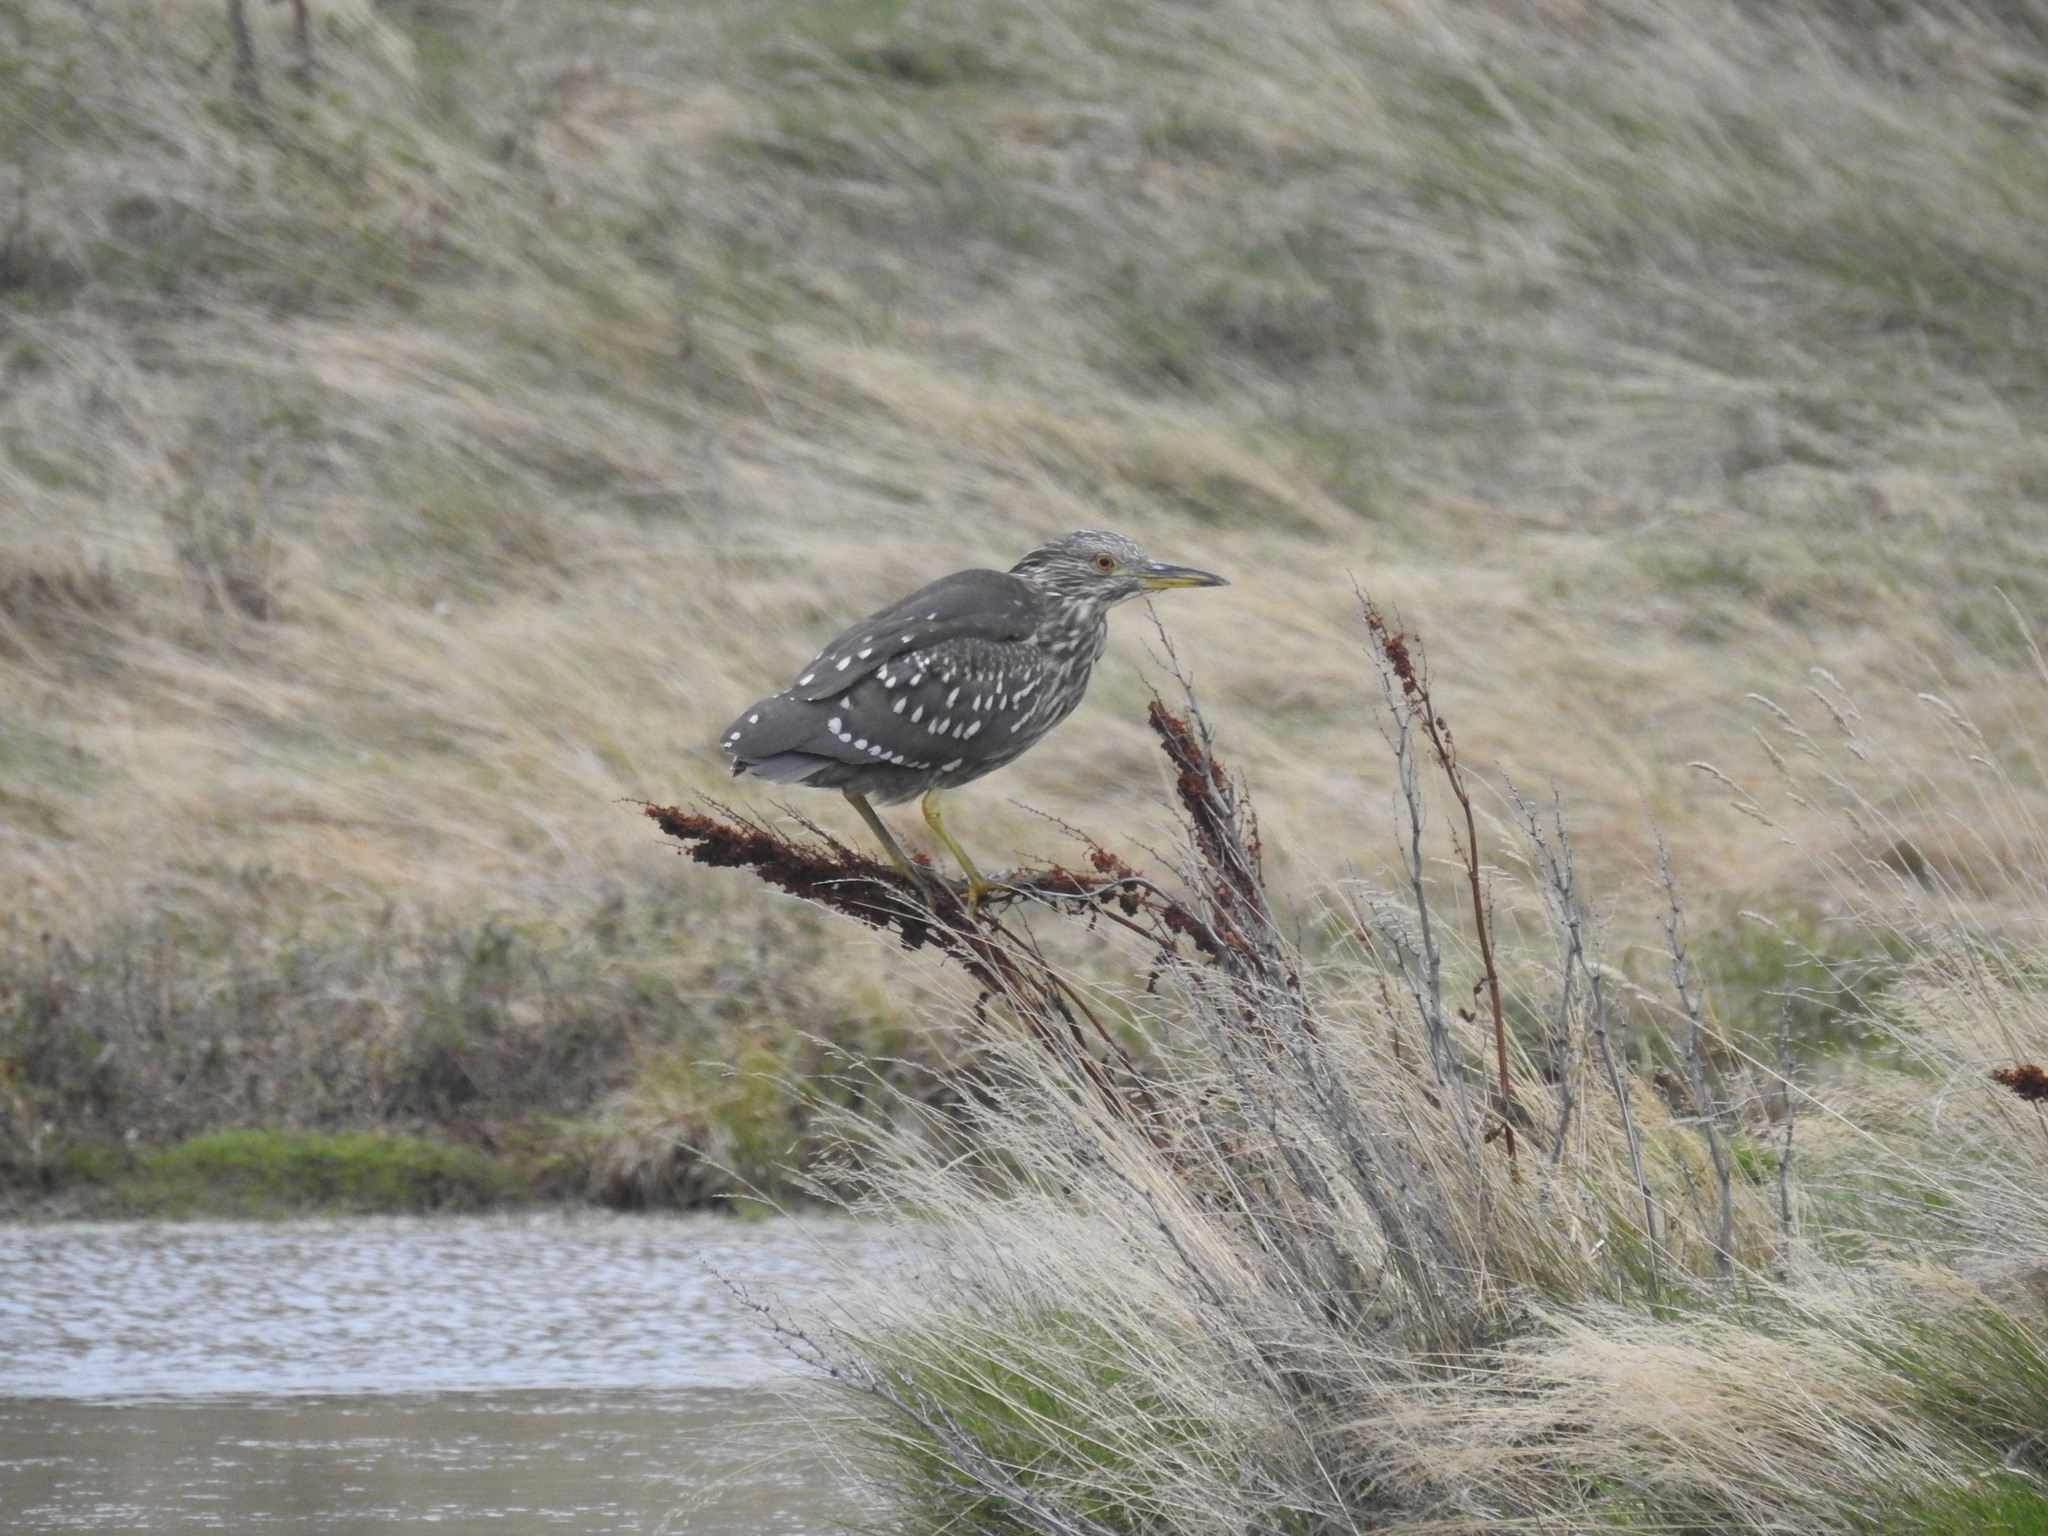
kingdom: Animalia
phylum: Chordata
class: Aves
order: Pelecaniformes
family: Ardeidae
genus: Nycticorax
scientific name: Nycticorax nycticorax
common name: Black-crowned night heron
